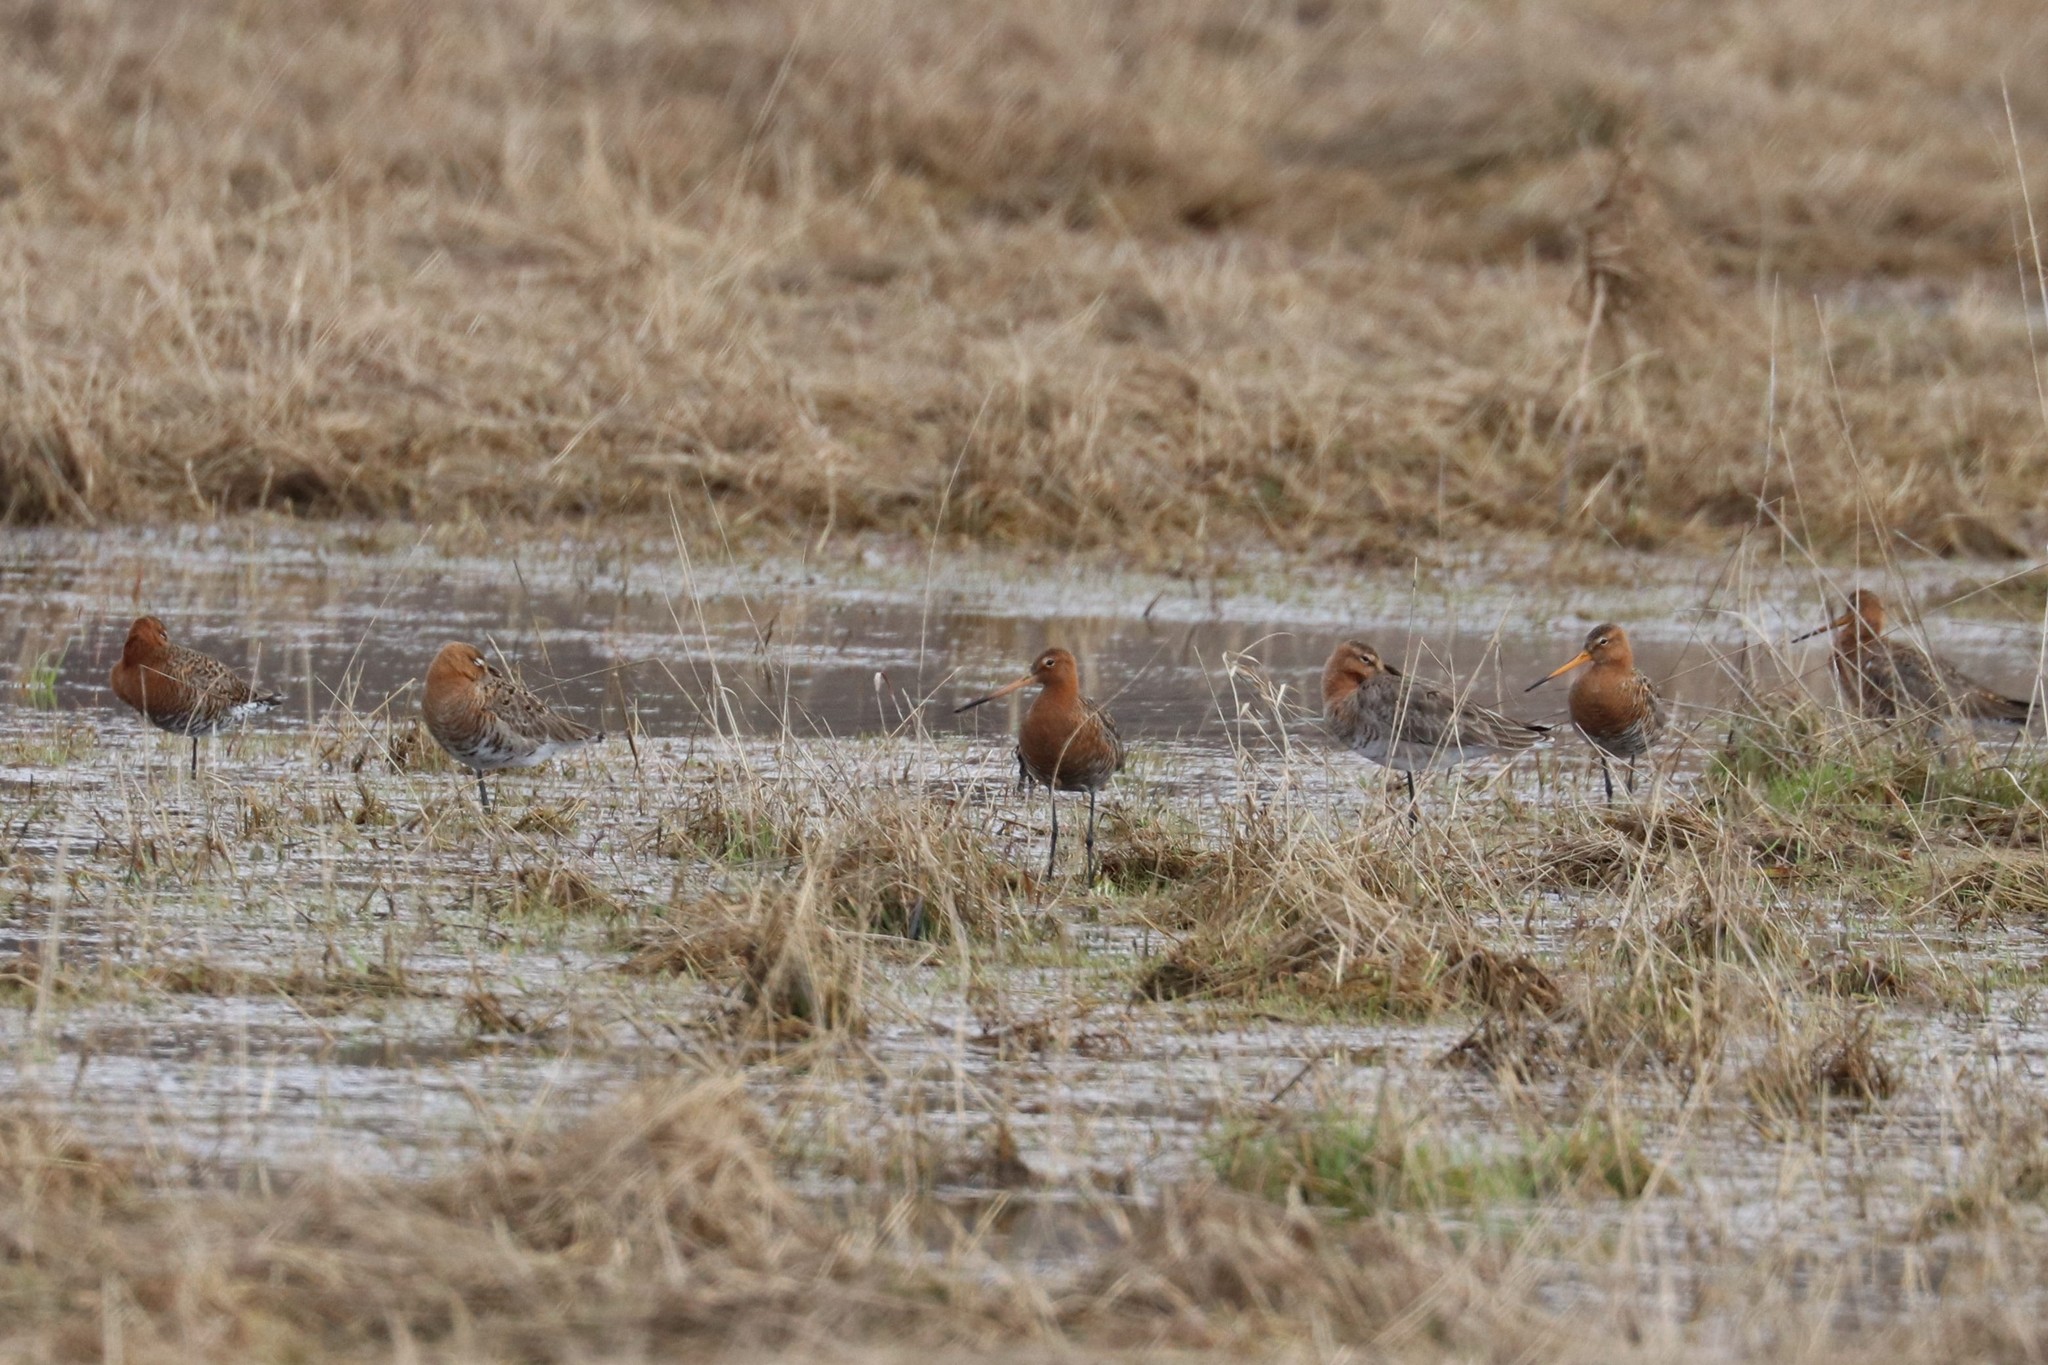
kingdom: Animalia
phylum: Chordata
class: Aves
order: Charadriiformes
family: Scolopacidae
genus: Limosa
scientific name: Limosa limosa
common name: Black-tailed godwit
